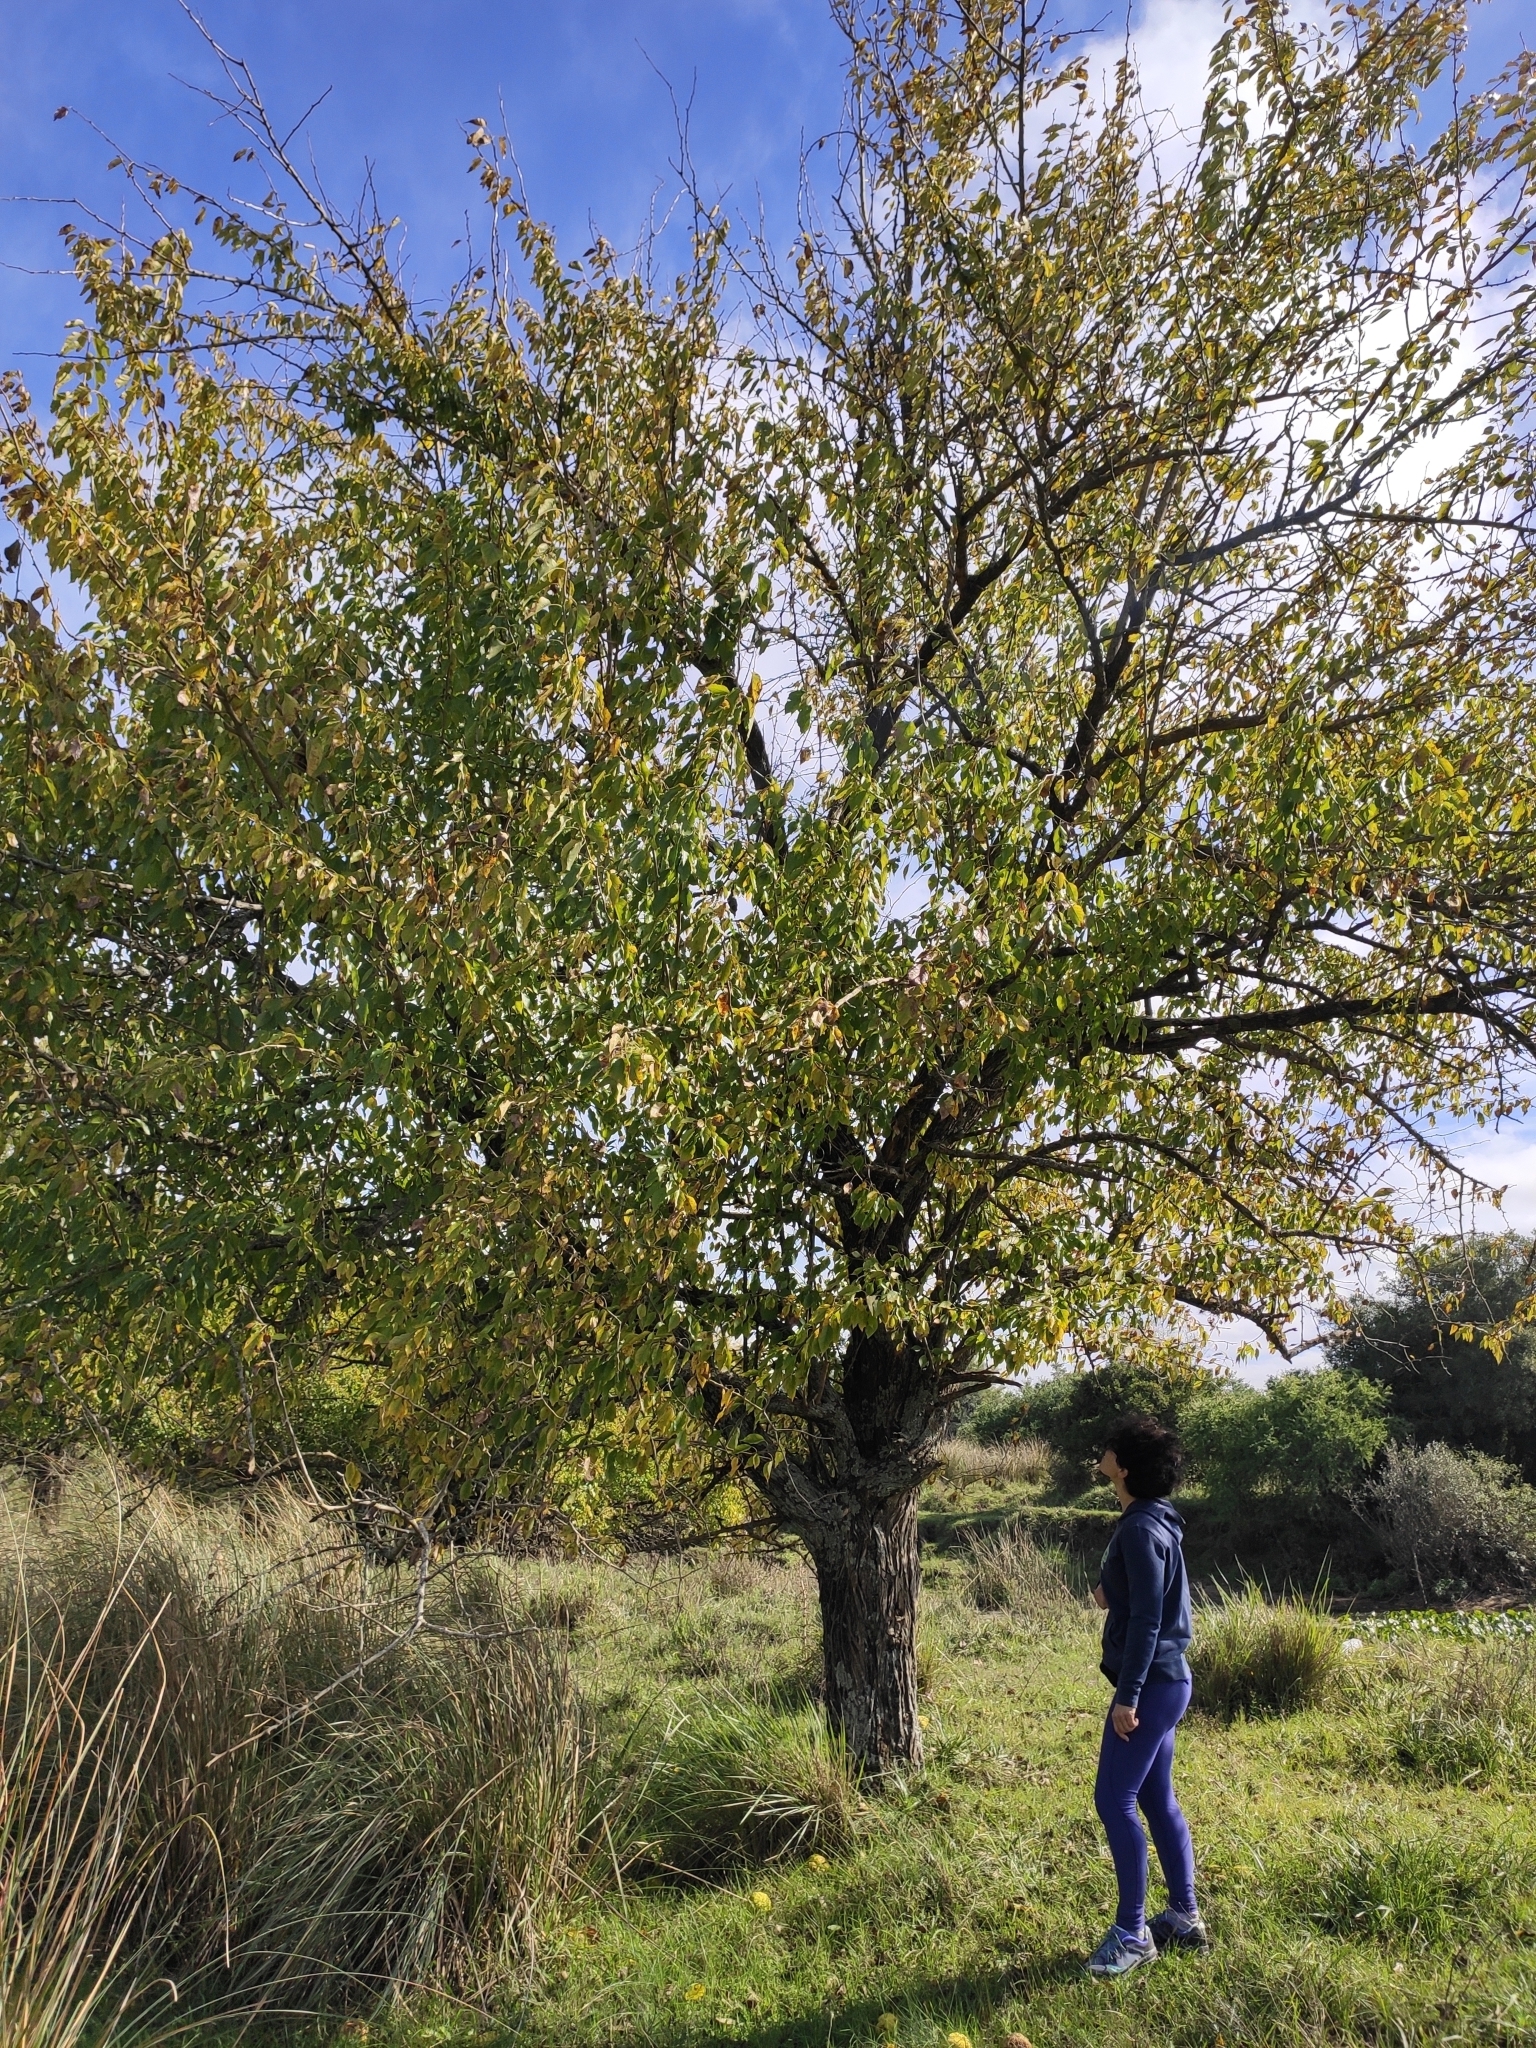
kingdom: Plantae
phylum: Tracheophyta
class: Magnoliopsida
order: Rosales
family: Moraceae
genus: Maclura
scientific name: Maclura pomifera
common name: Osage-orange
